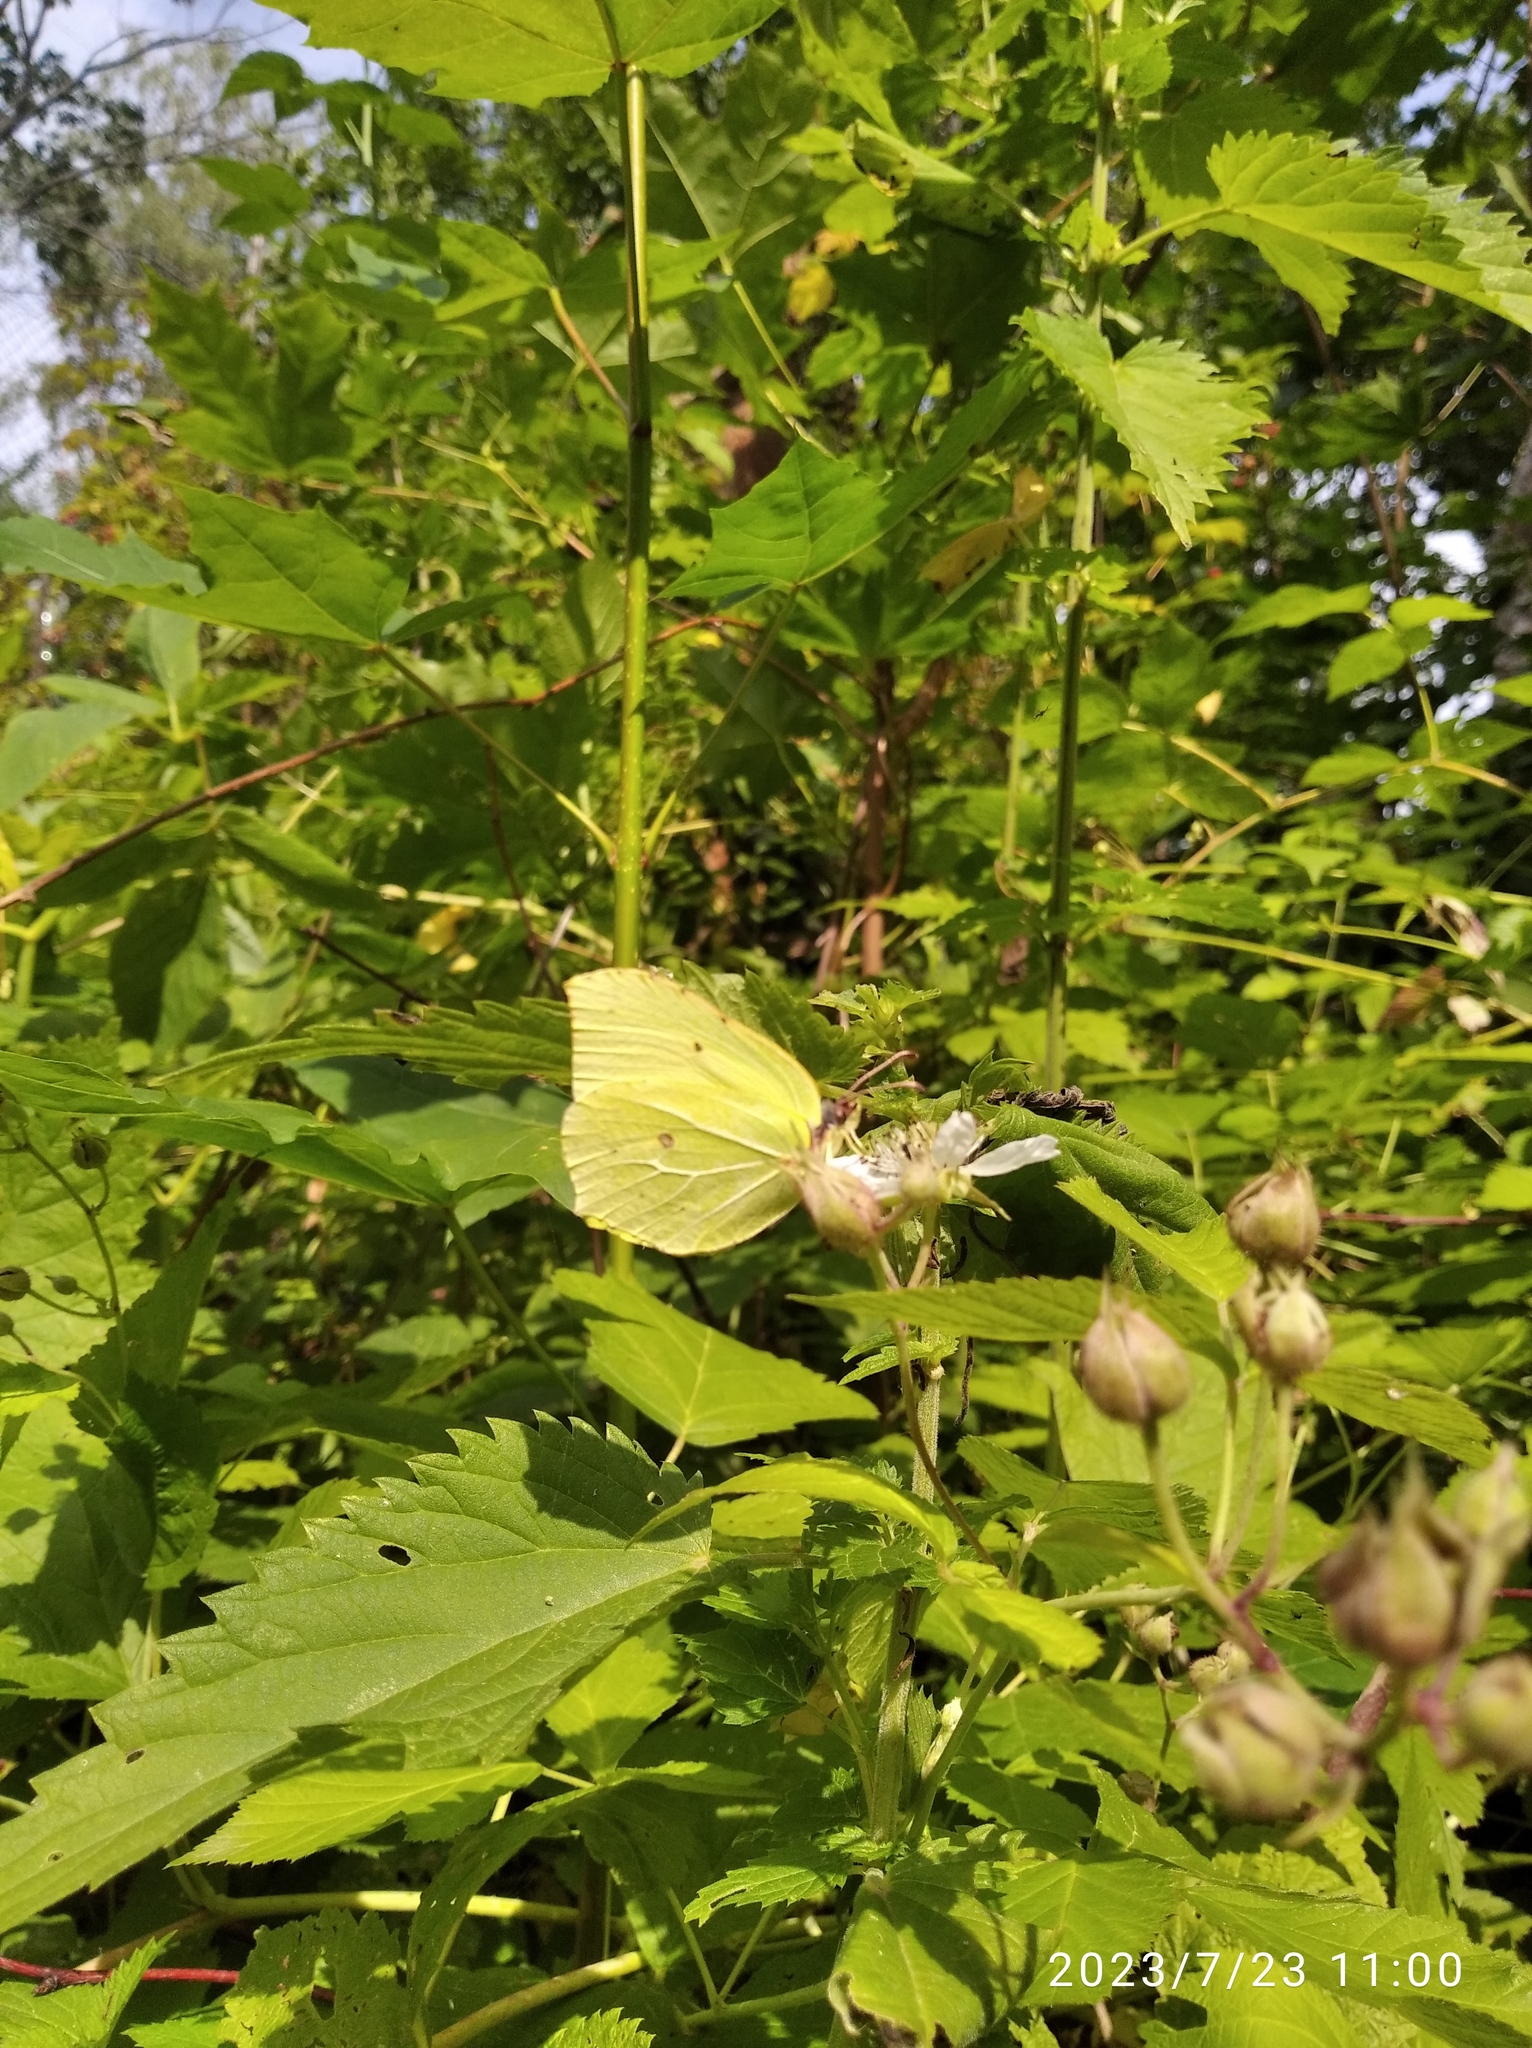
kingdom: Animalia
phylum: Arthropoda
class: Insecta
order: Lepidoptera
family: Pieridae
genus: Gonepteryx
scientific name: Gonepteryx rhamni
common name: Brimstone
